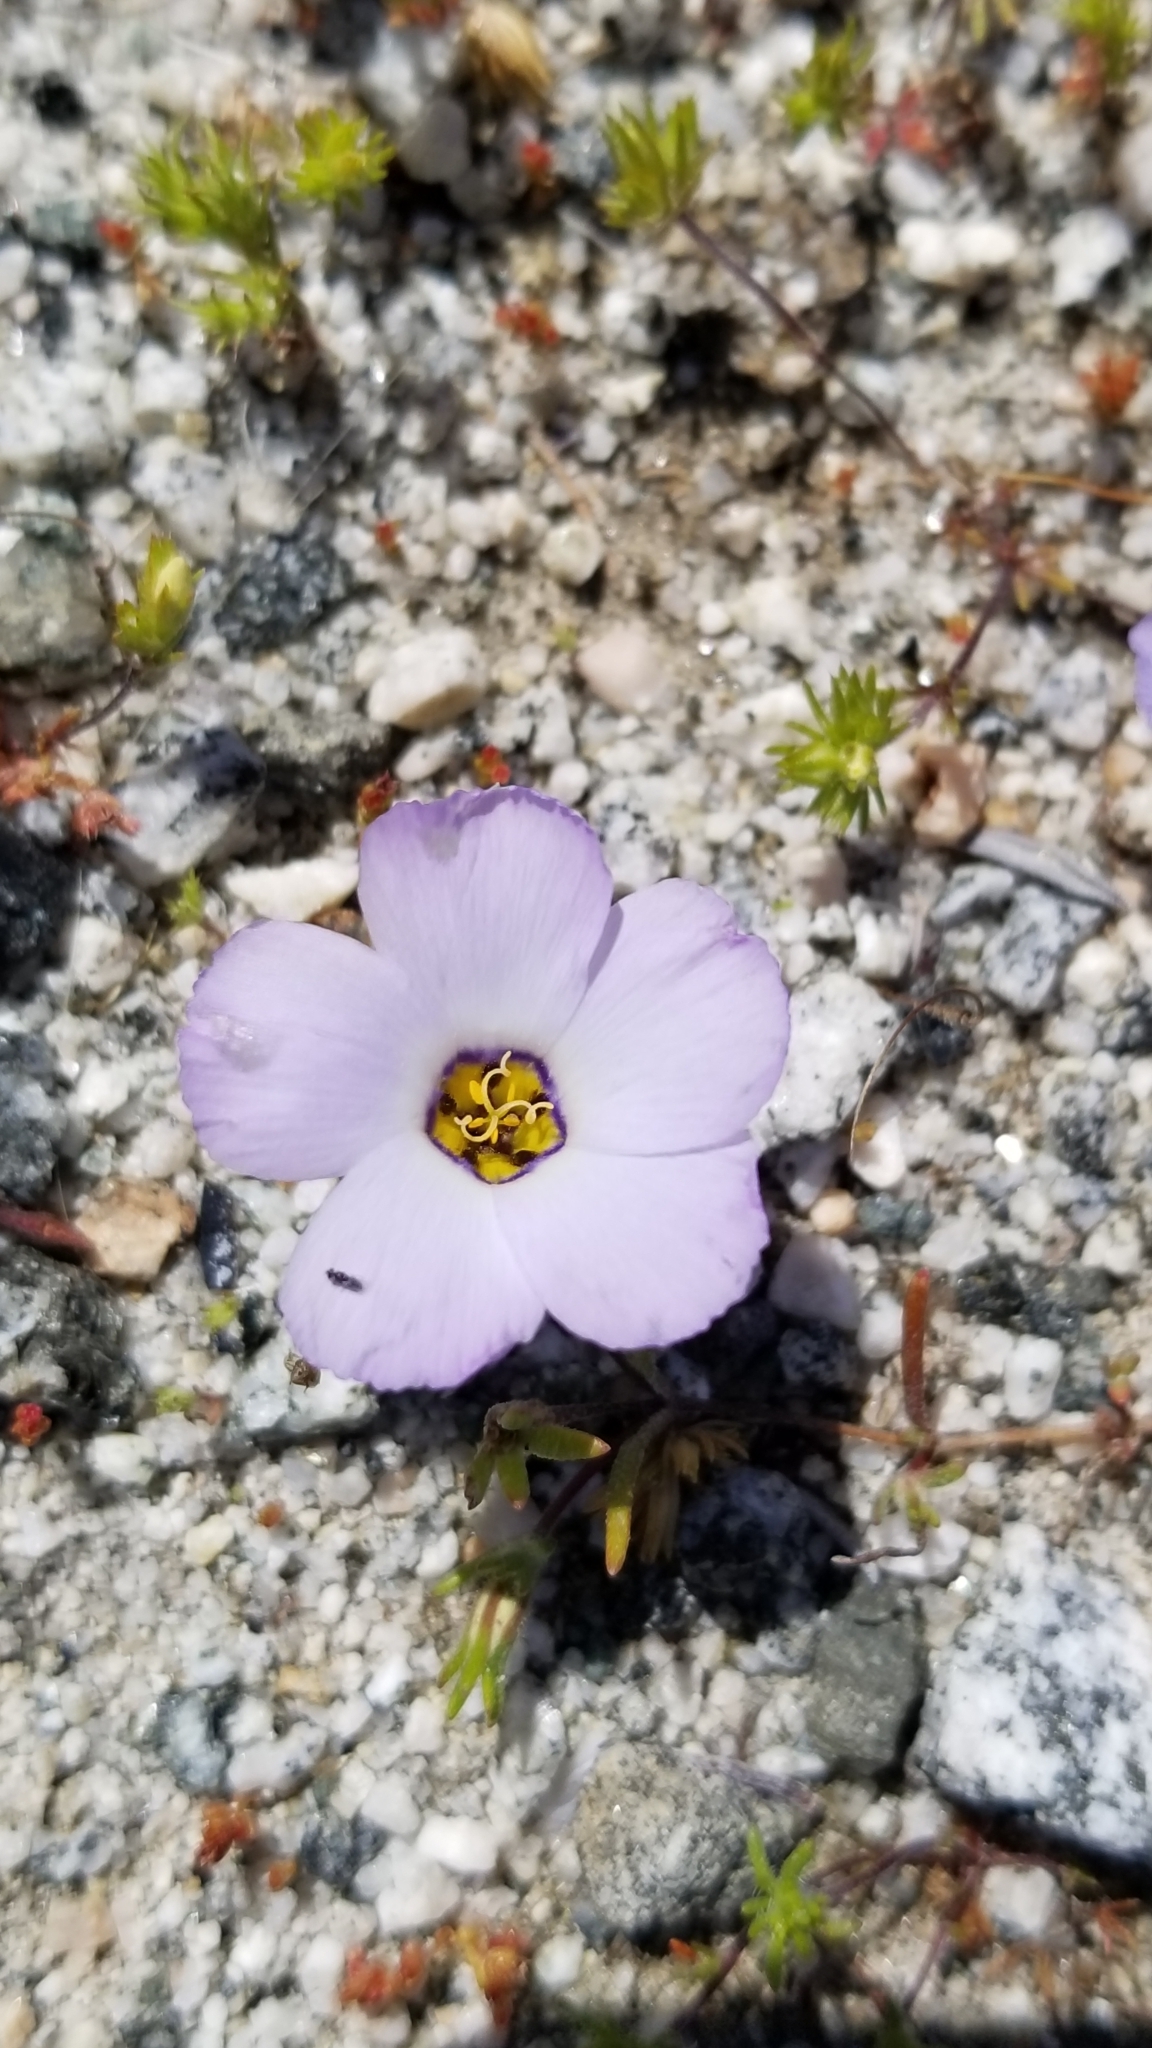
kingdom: Plantae
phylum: Tracheophyta
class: Magnoliopsida
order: Ericales
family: Polemoniaceae
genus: Linanthus
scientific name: Linanthus dianthiflorus
